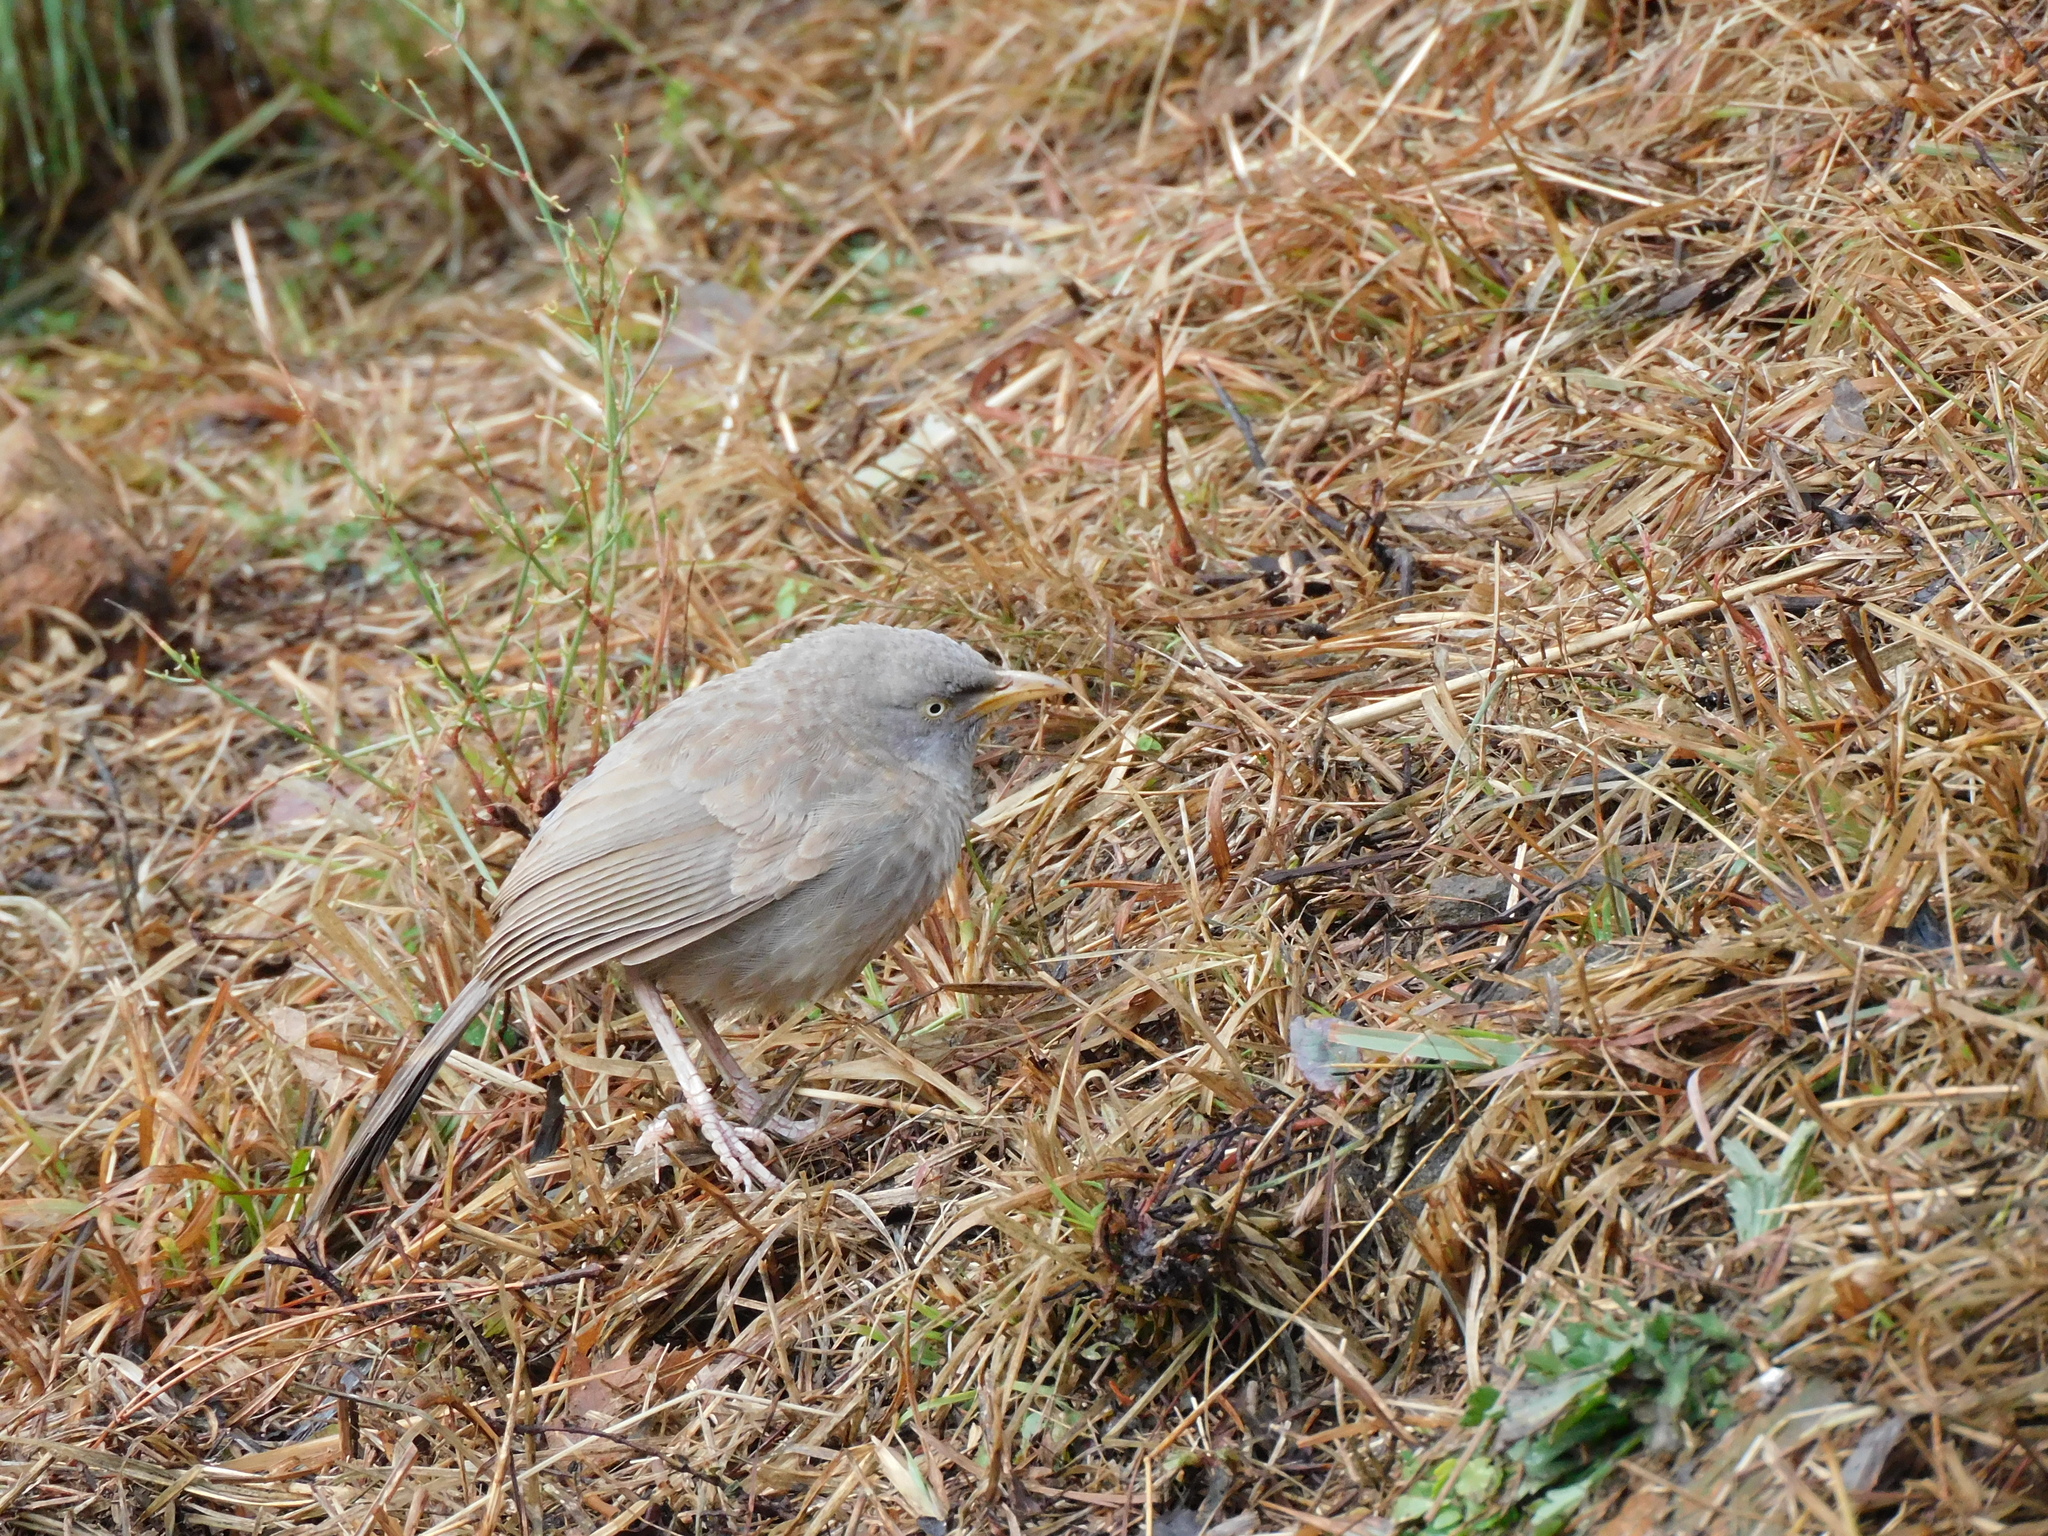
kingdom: Animalia
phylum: Chordata
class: Aves
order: Passeriformes
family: Leiothrichidae
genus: Turdoides
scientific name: Turdoides striata
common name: Jungle babbler
